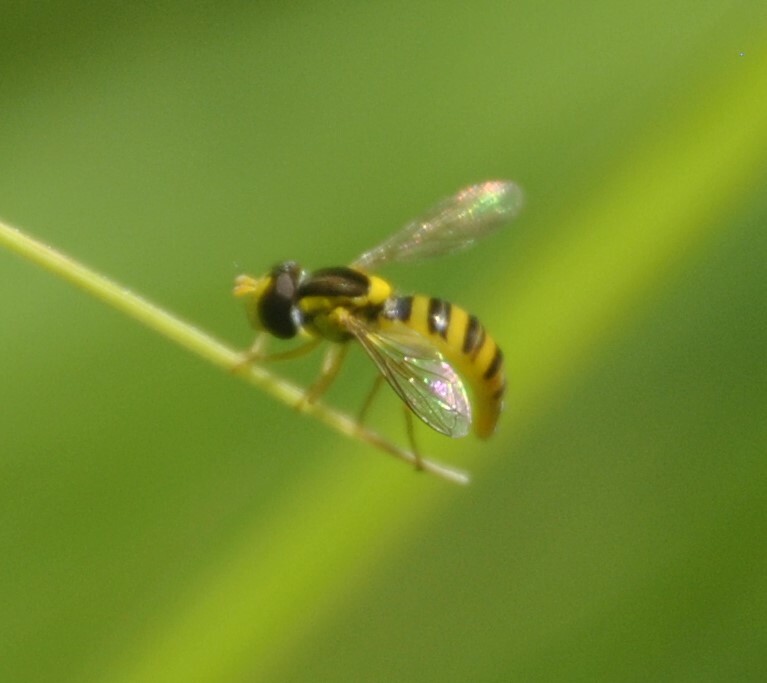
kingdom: Animalia
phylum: Arthropoda
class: Insecta
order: Diptera
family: Syrphidae
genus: Sphaerophoria
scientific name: Sphaerophoria
